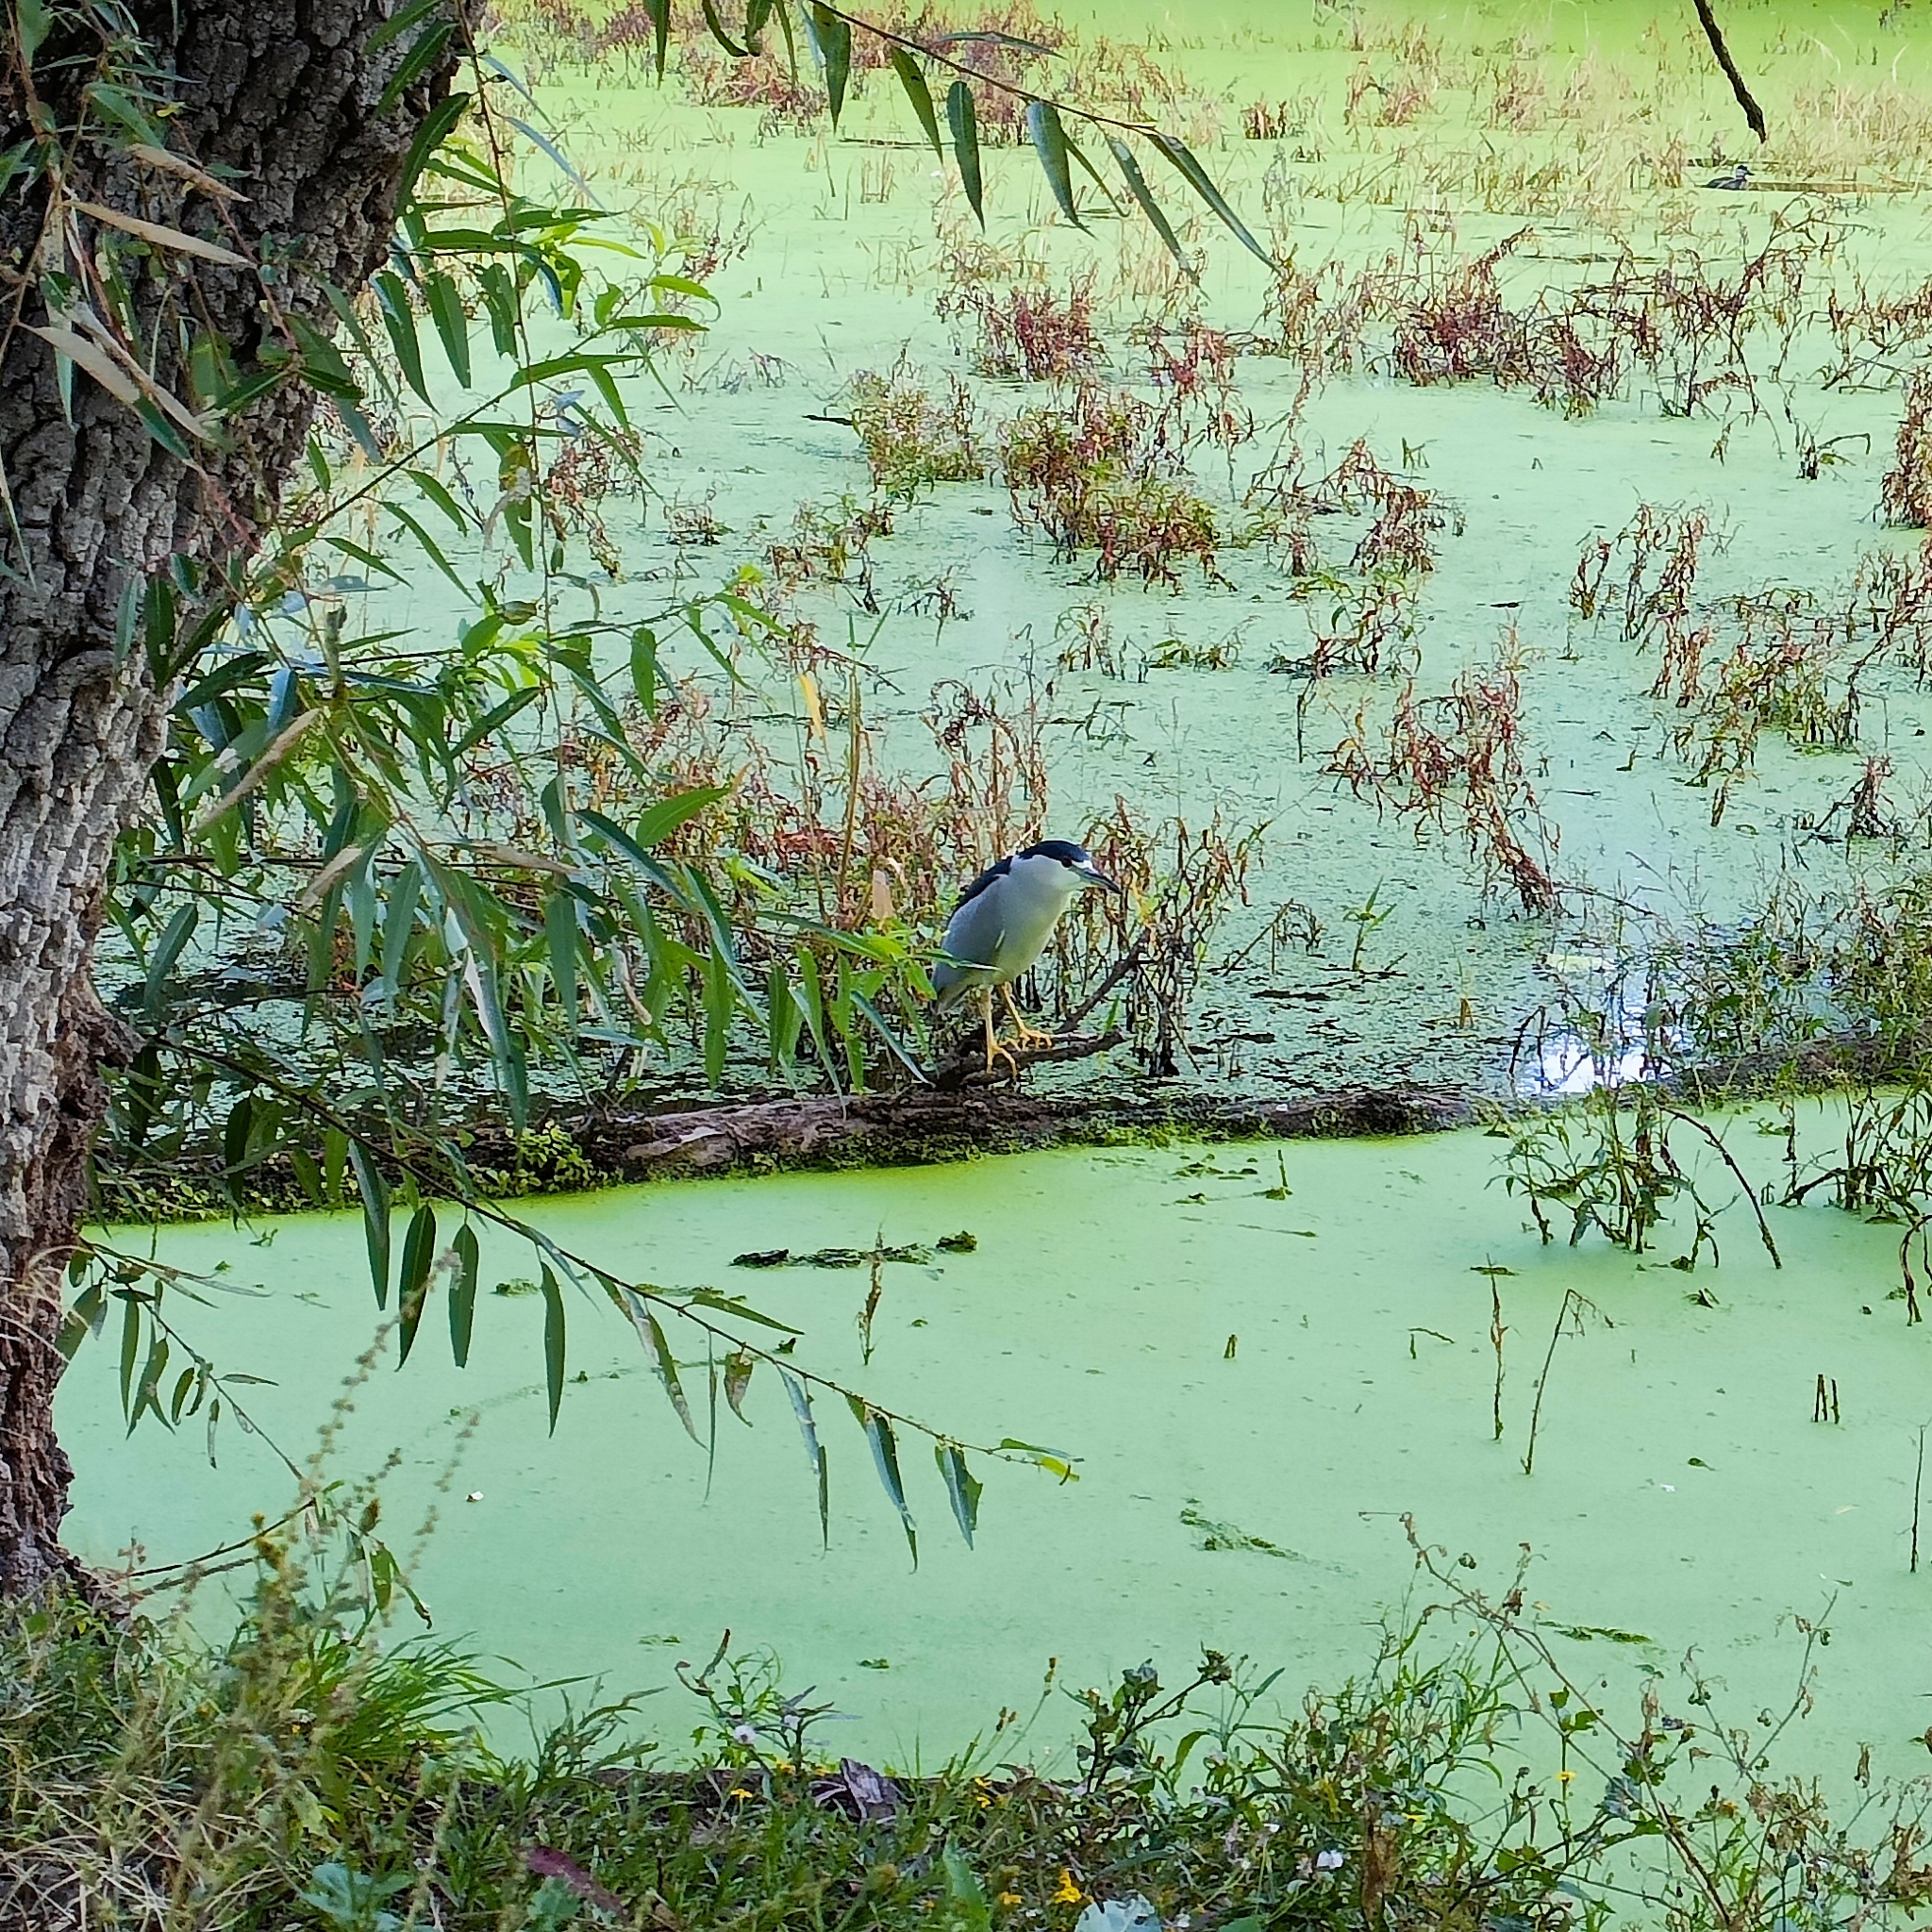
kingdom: Animalia
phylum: Chordata
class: Aves
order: Pelecaniformes
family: Ardeidae
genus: Nycticorax
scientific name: Nycticorax nycticorax
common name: Black-crowned night heron
